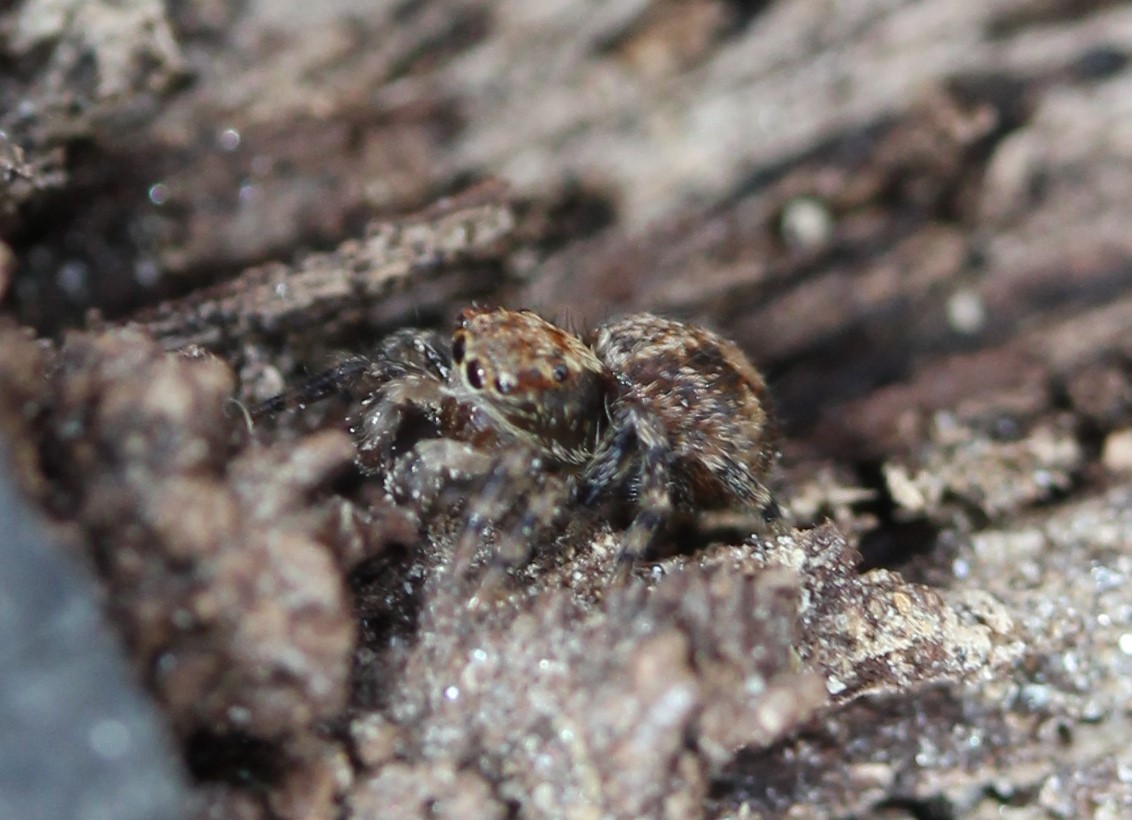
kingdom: Animalia
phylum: Arthropoda
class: Arachnida
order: Araneae
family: Salticidae
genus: Naphrys
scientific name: Naphrys pulex
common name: Flea jumping spider
